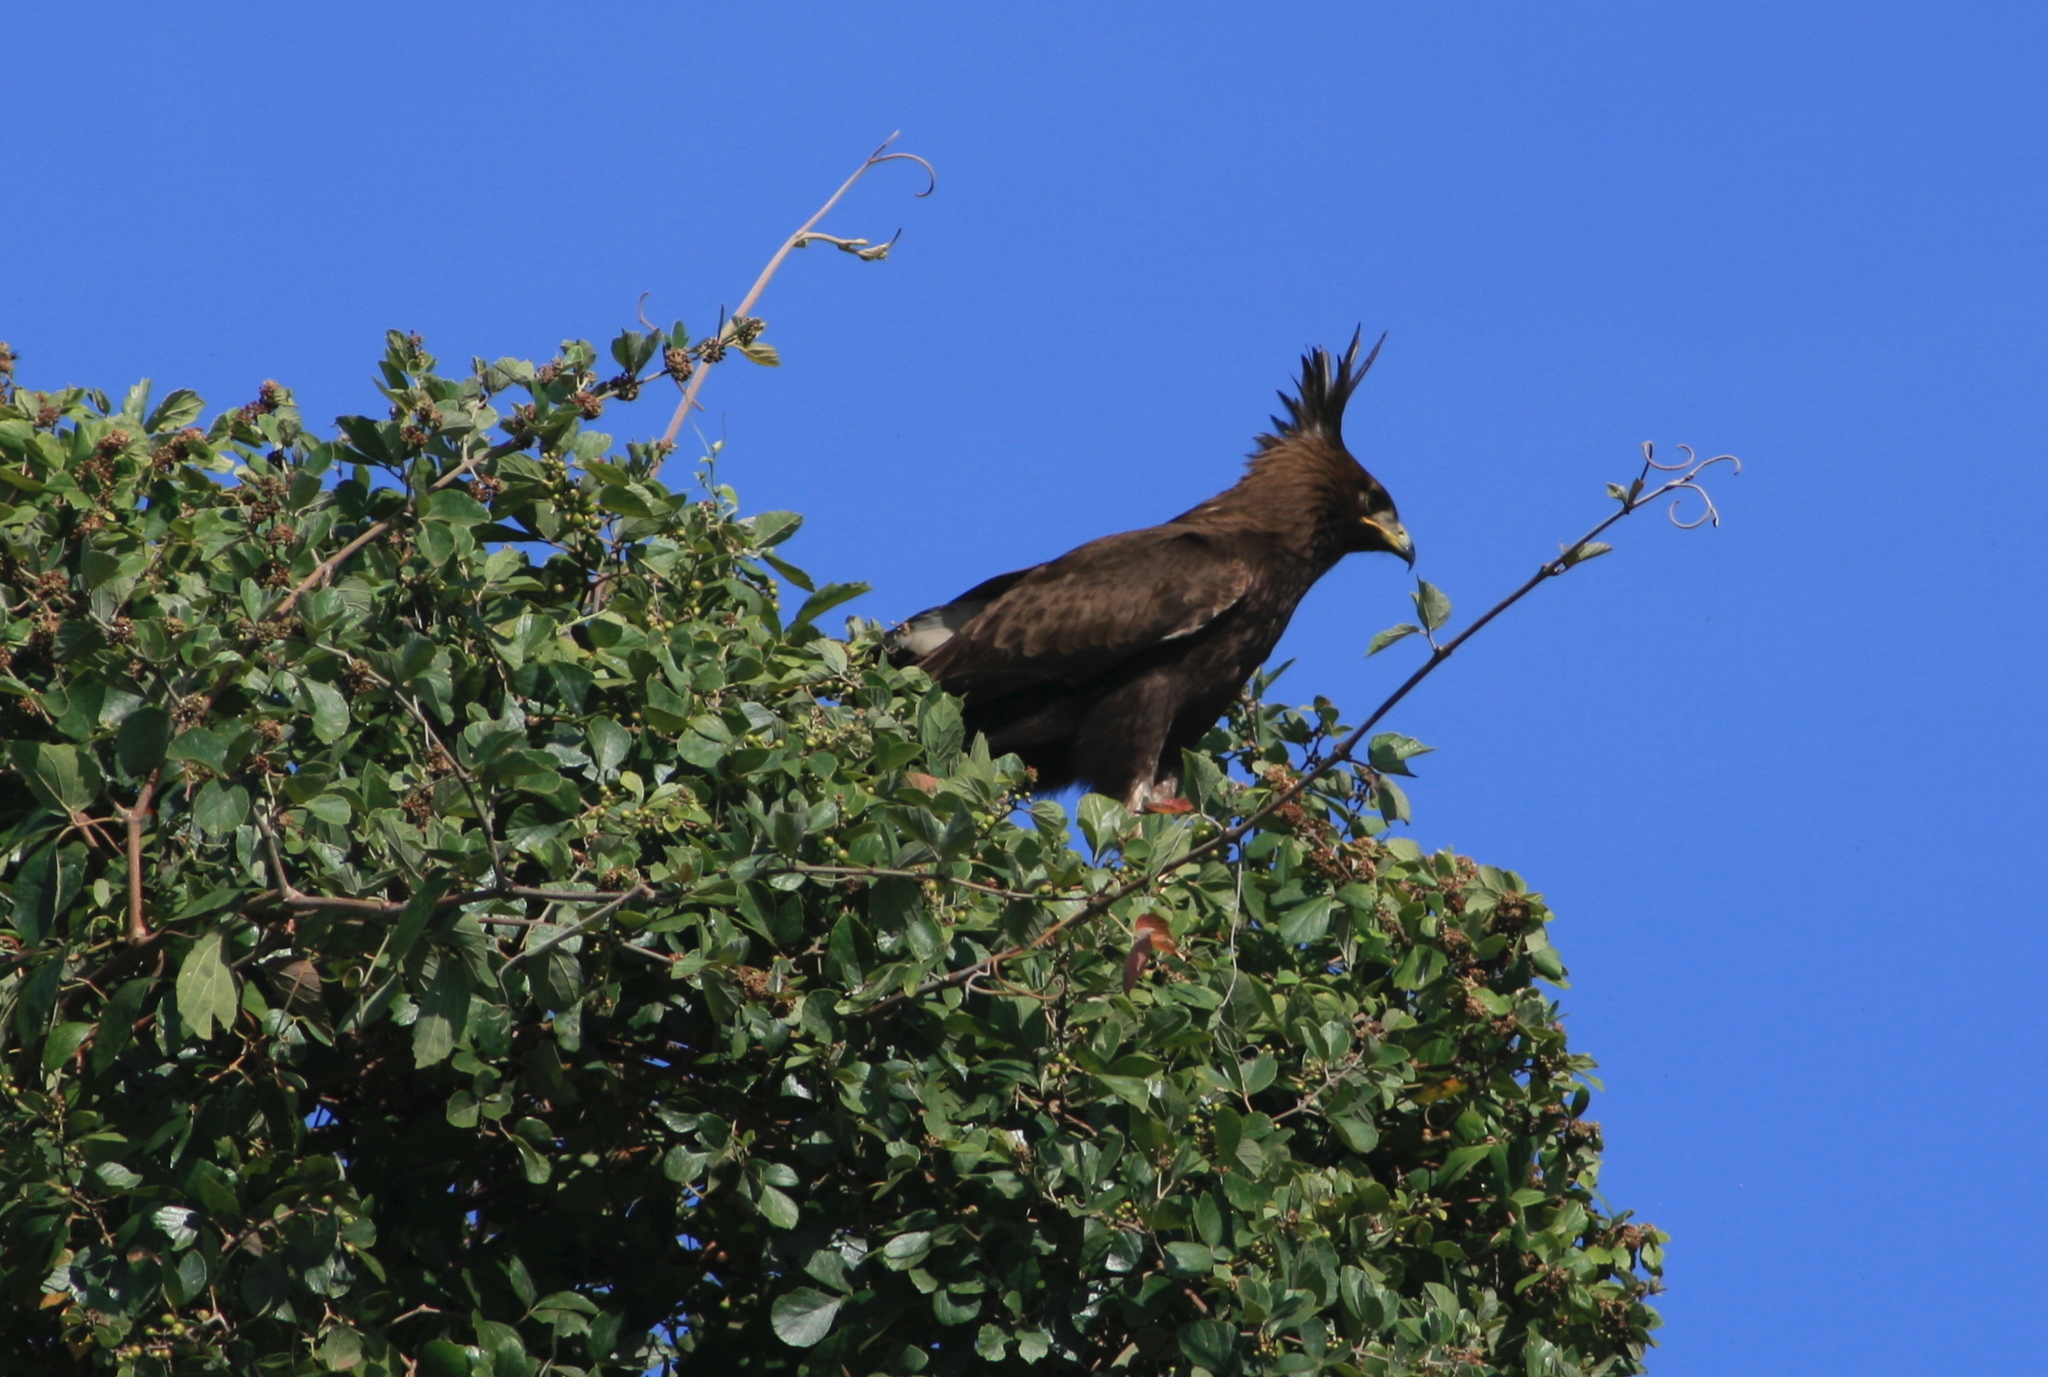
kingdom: Animalia
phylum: Chordata
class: Aves
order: Accipitriformes
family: Accipitridae
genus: Lophaetus
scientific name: Lophaetus occipitalis
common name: Long-crested eagle
